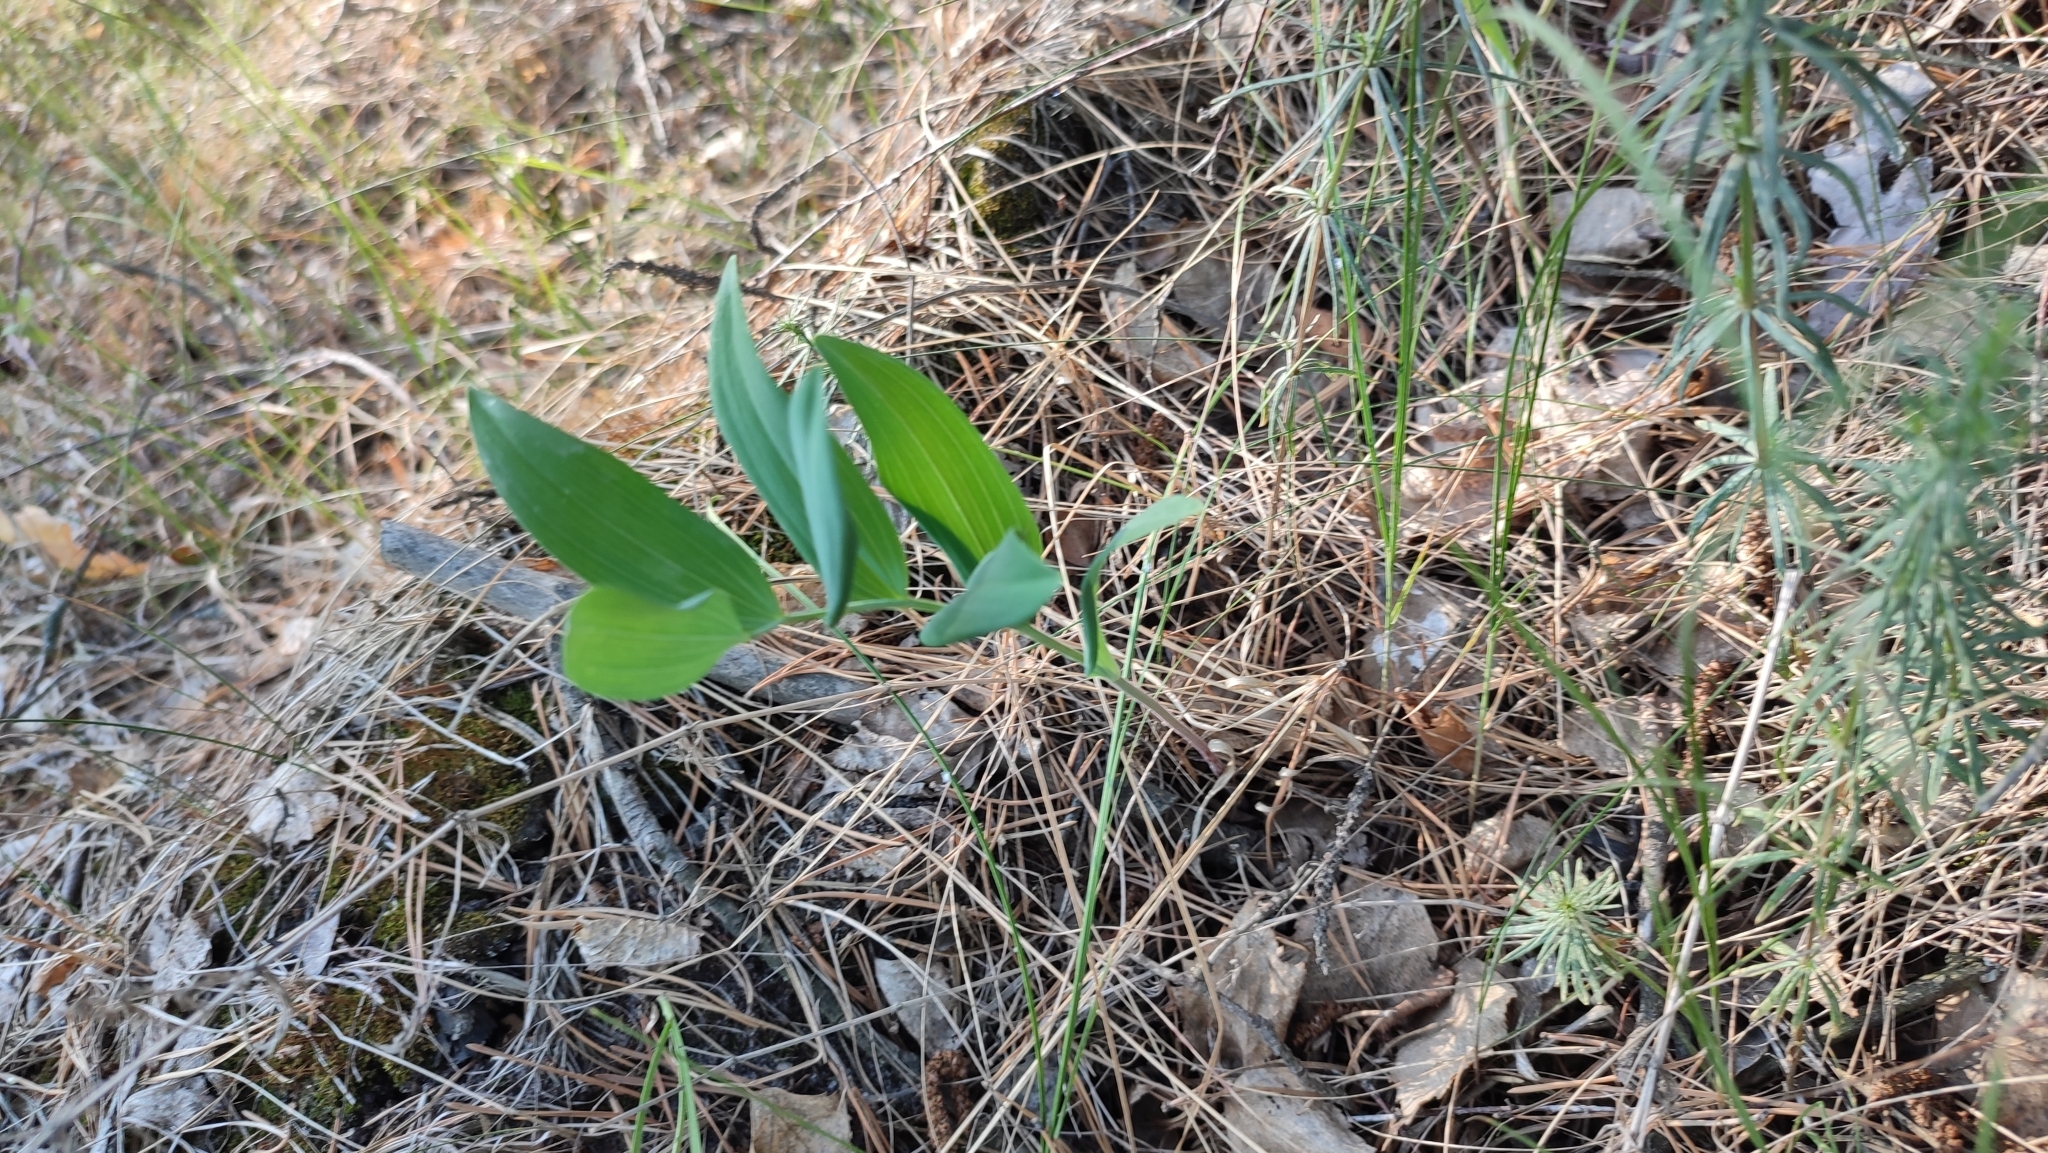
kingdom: Plantae
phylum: Tracheophyta
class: Liliopsida
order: Asparagales
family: Asparagaceae
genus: Polygonatum
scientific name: Polygonatum odoratum
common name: Angular solomon's-seal
